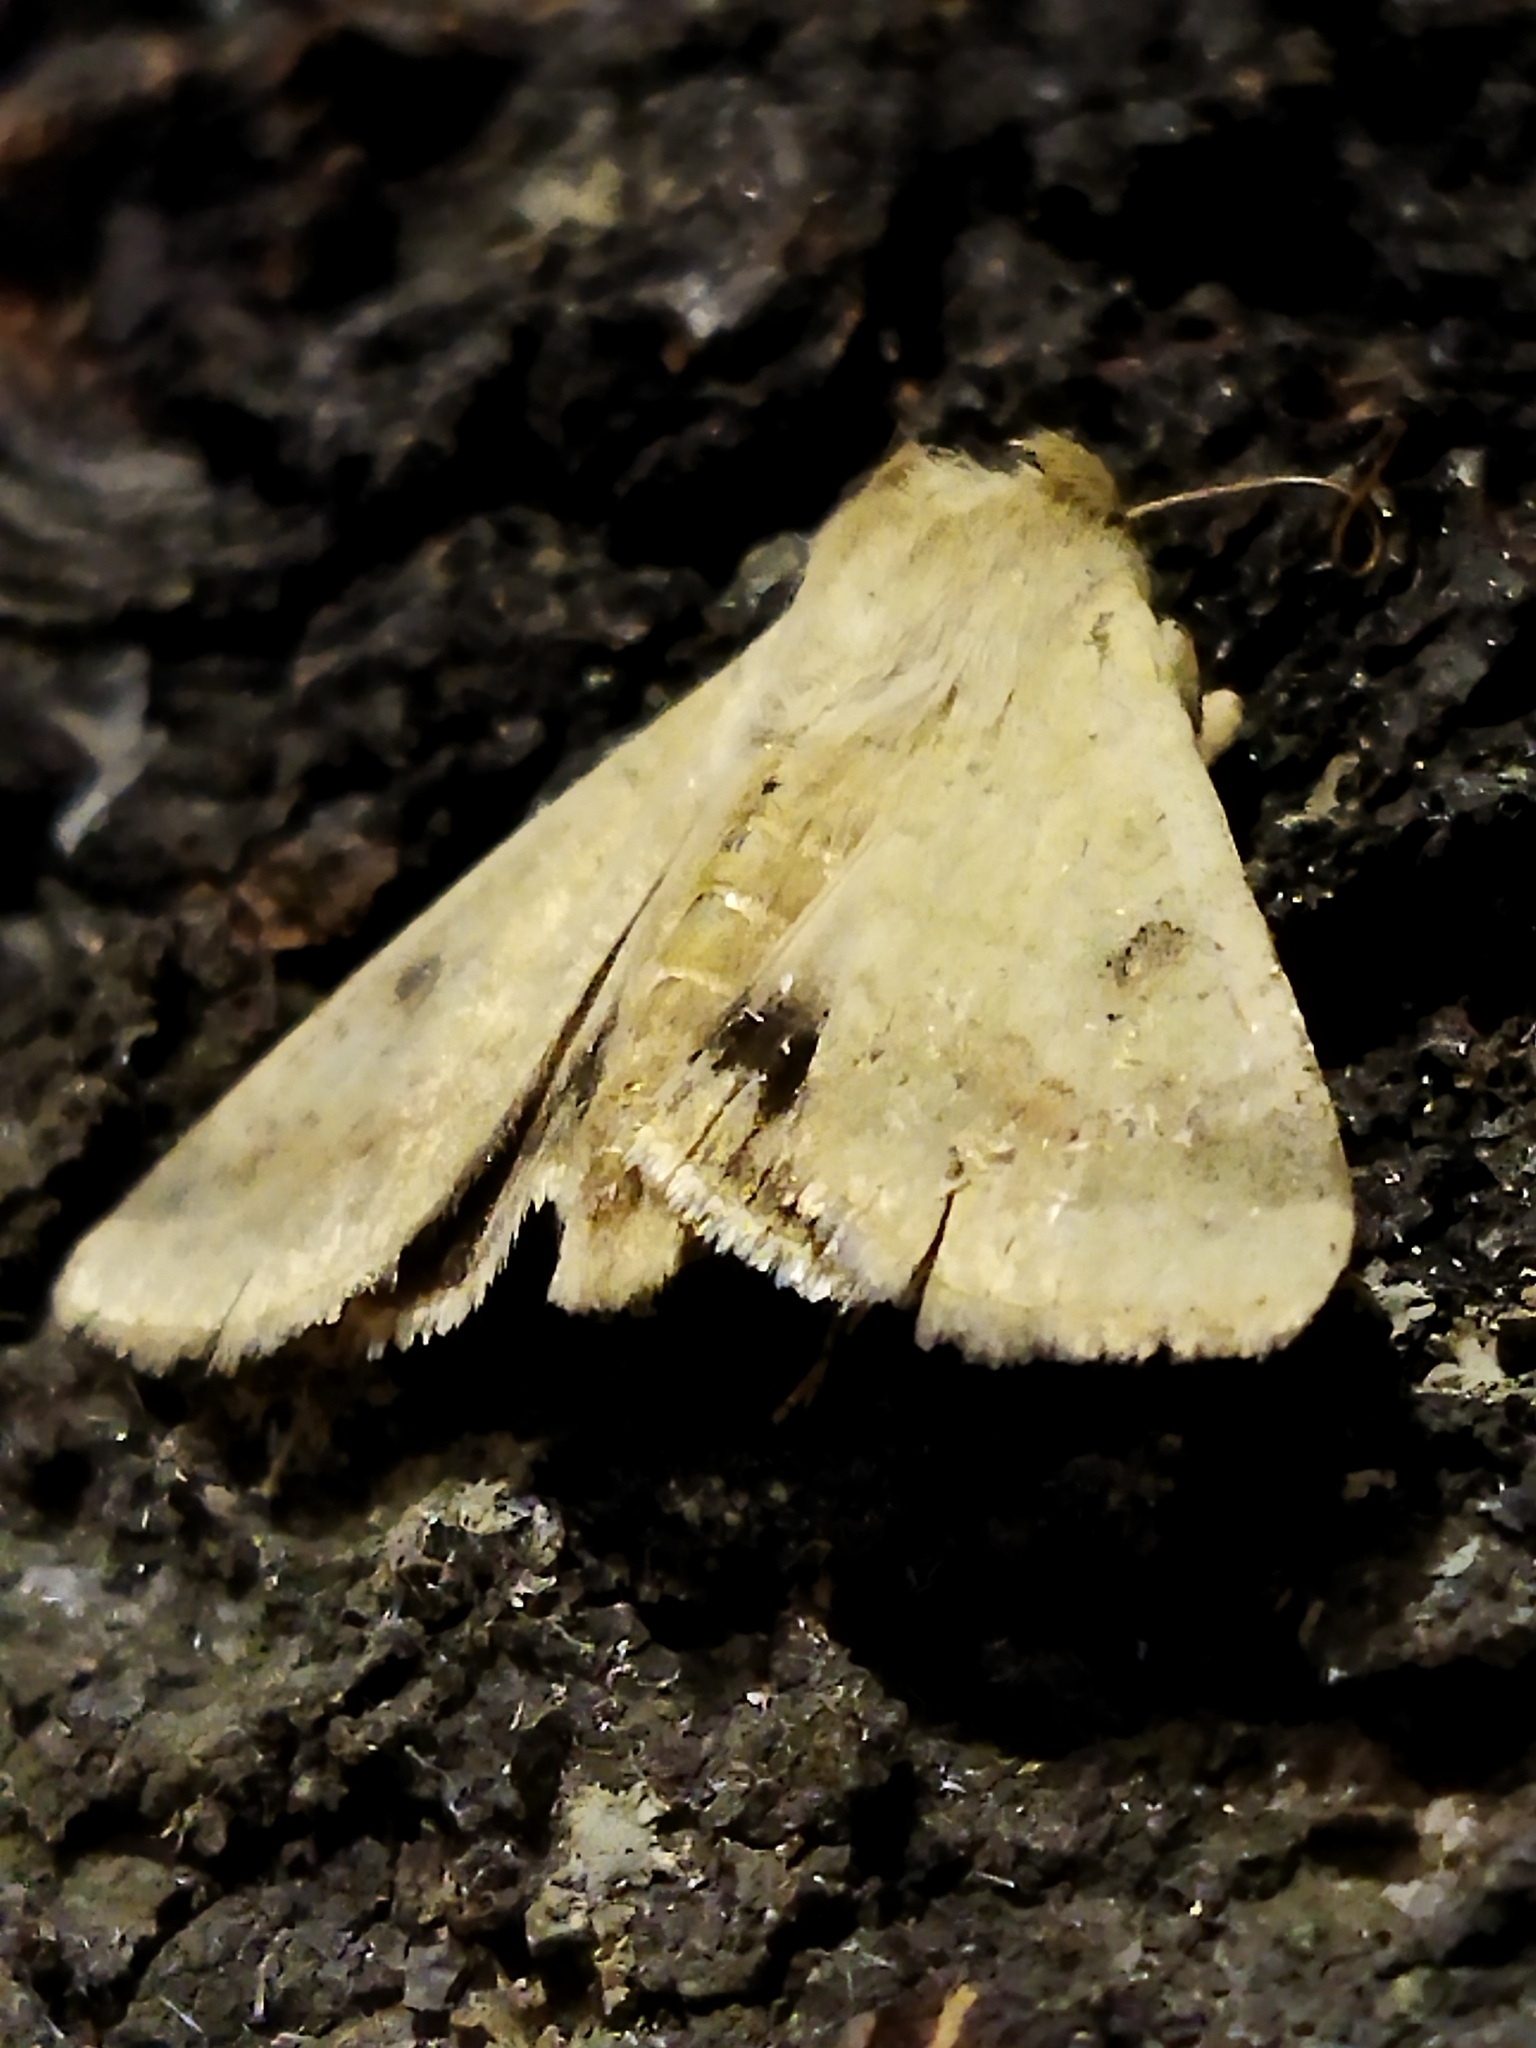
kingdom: Animalia
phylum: Arthropoda
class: Insecta
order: Lepidoptera
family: Noctuidae
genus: Helicoverpa
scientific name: Helicoverpa armigera
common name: Cotton bollworm
